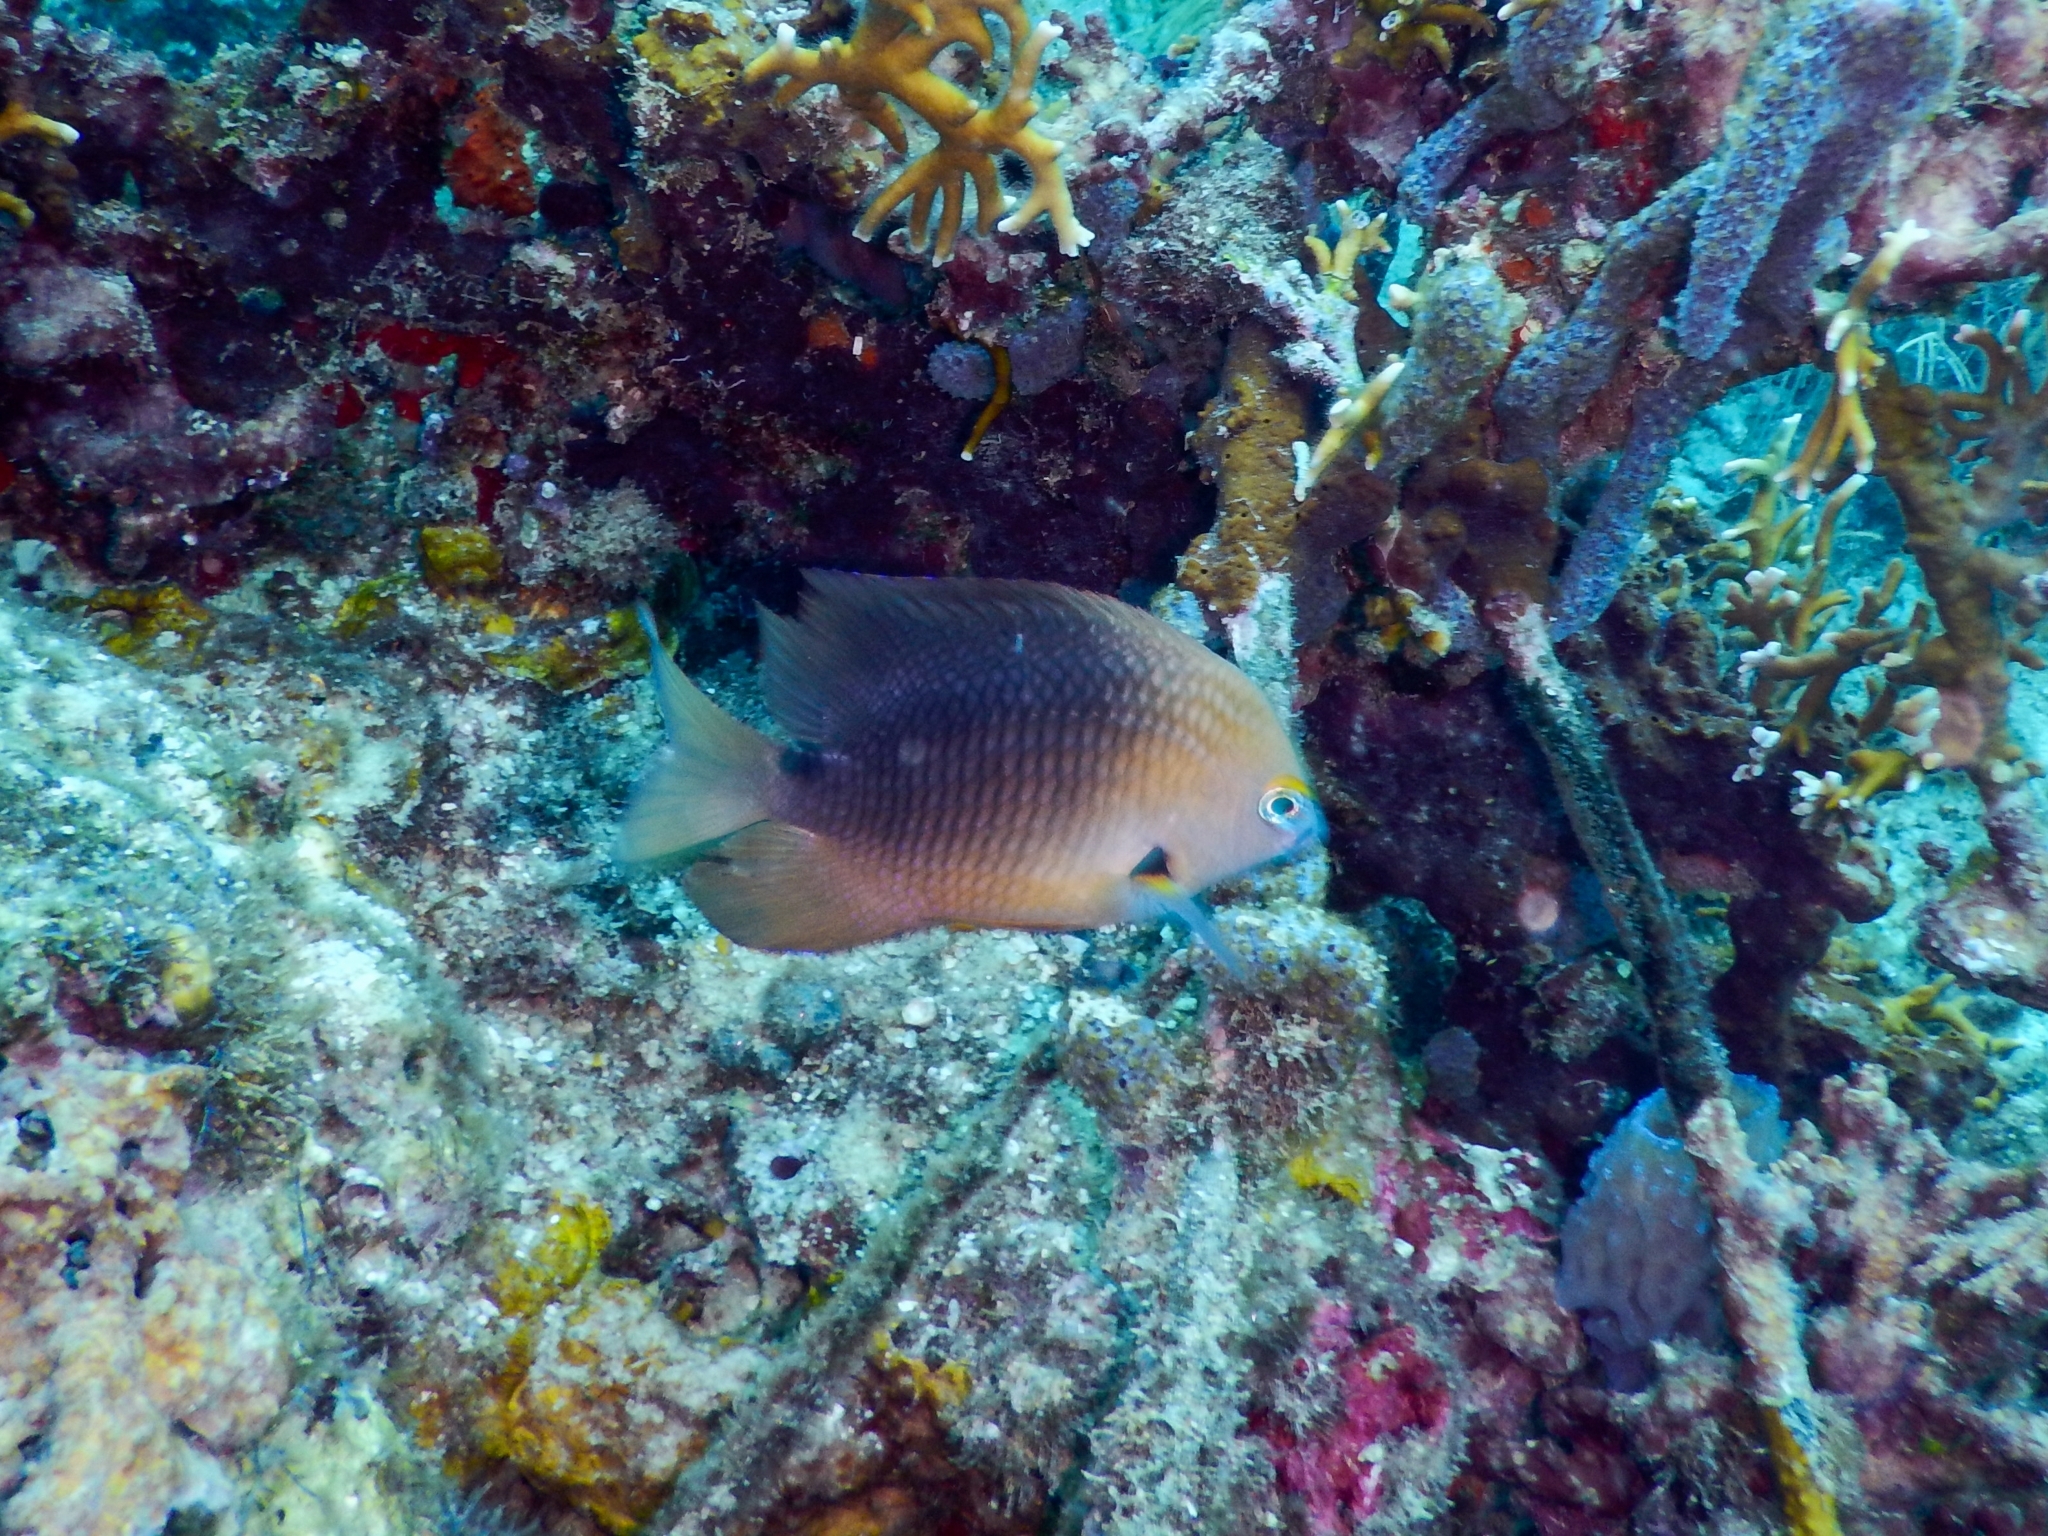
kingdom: Animalia
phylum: Chordata
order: Perciformes
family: Pomacentridae
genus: Stegastes
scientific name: Stegastes planifrons
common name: Threespot damselfish
